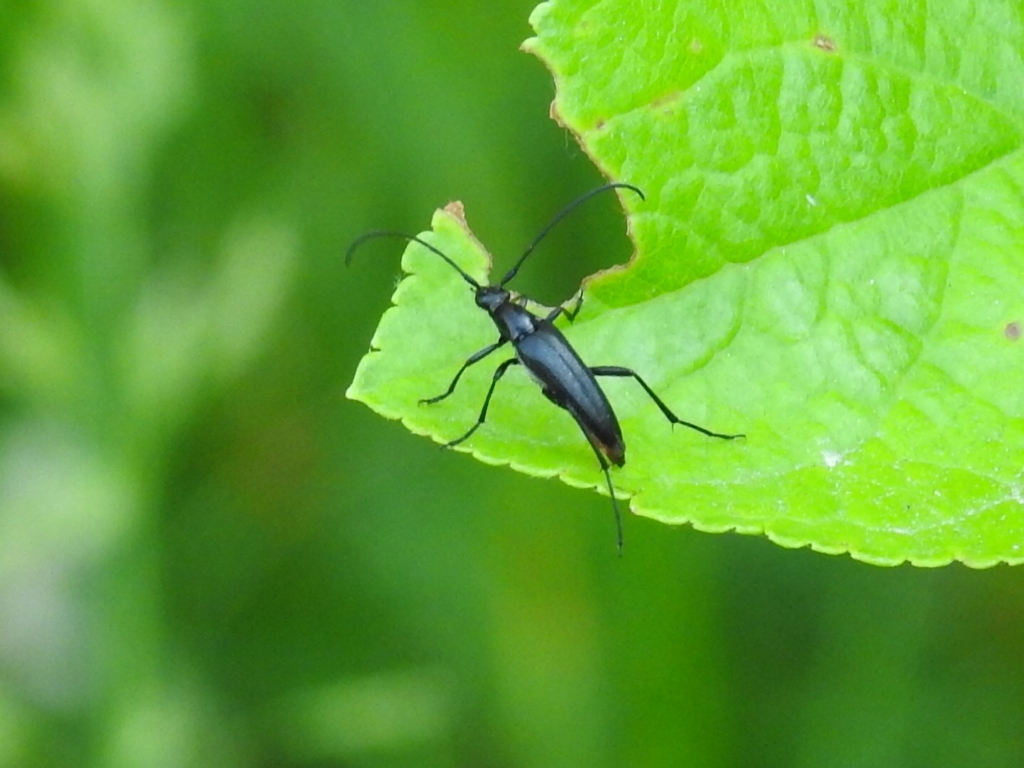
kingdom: Animalia
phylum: Arthropoda
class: Insecta
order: Coleoptera
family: Cerambycidae
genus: Stenurella
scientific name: Stenurella nigra
